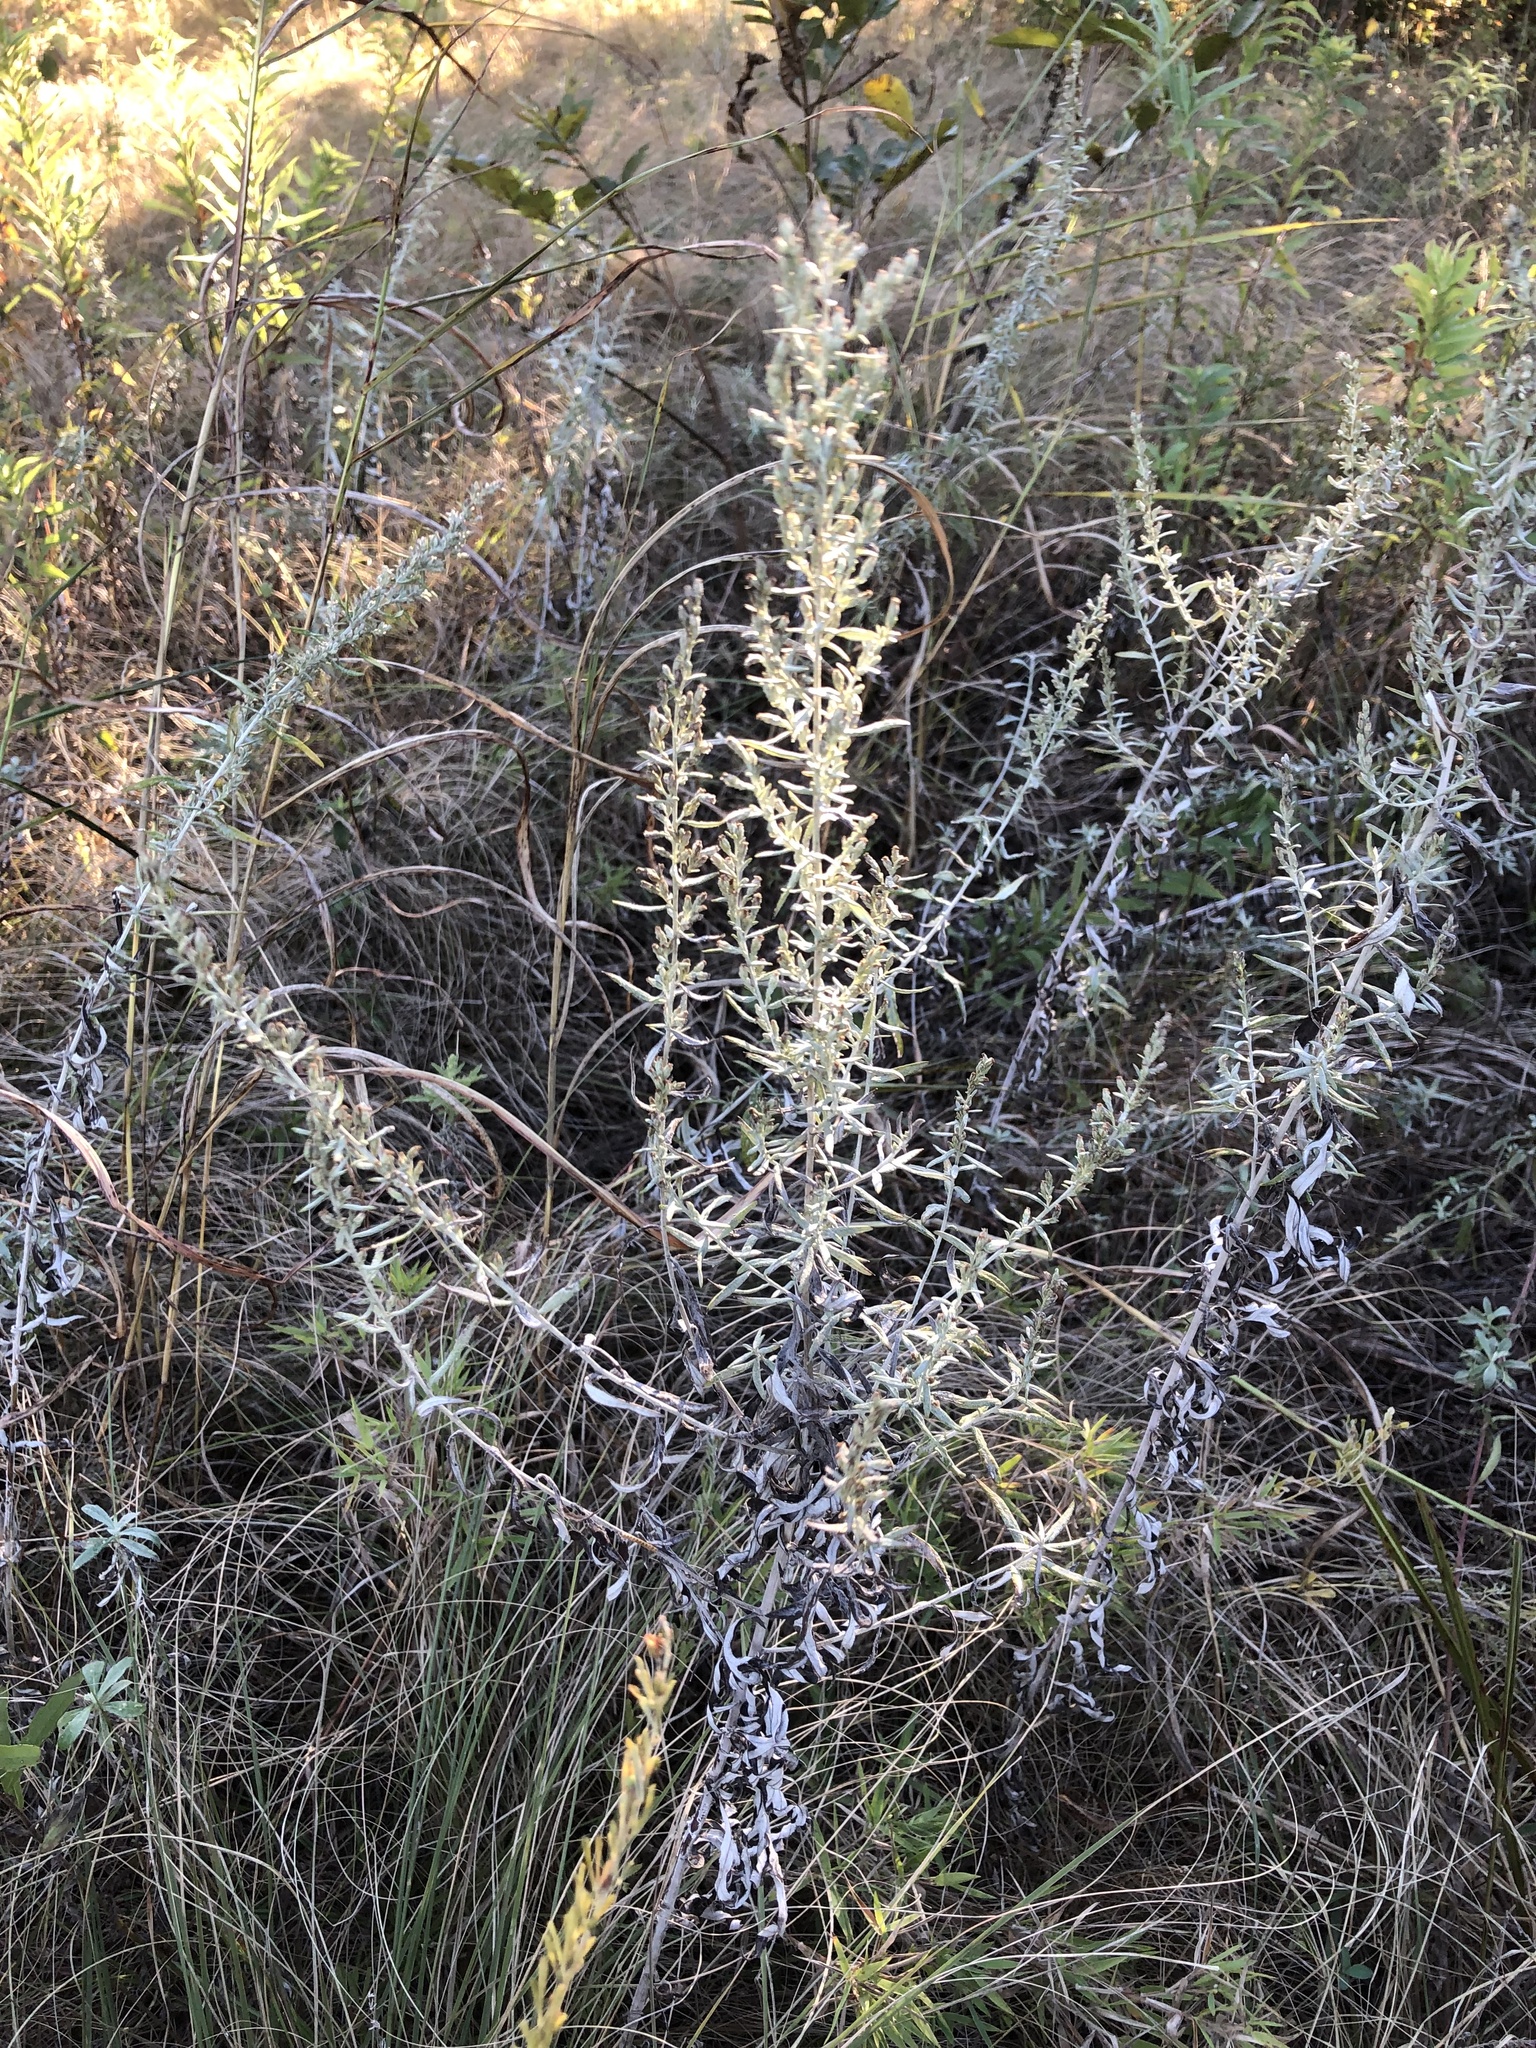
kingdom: Plantae
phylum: Tracheophyta
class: Magnoliopsida
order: Asterales
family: Asteraceae
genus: Artemisia
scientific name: Artemisia ludoviciana
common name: Western mugwort
